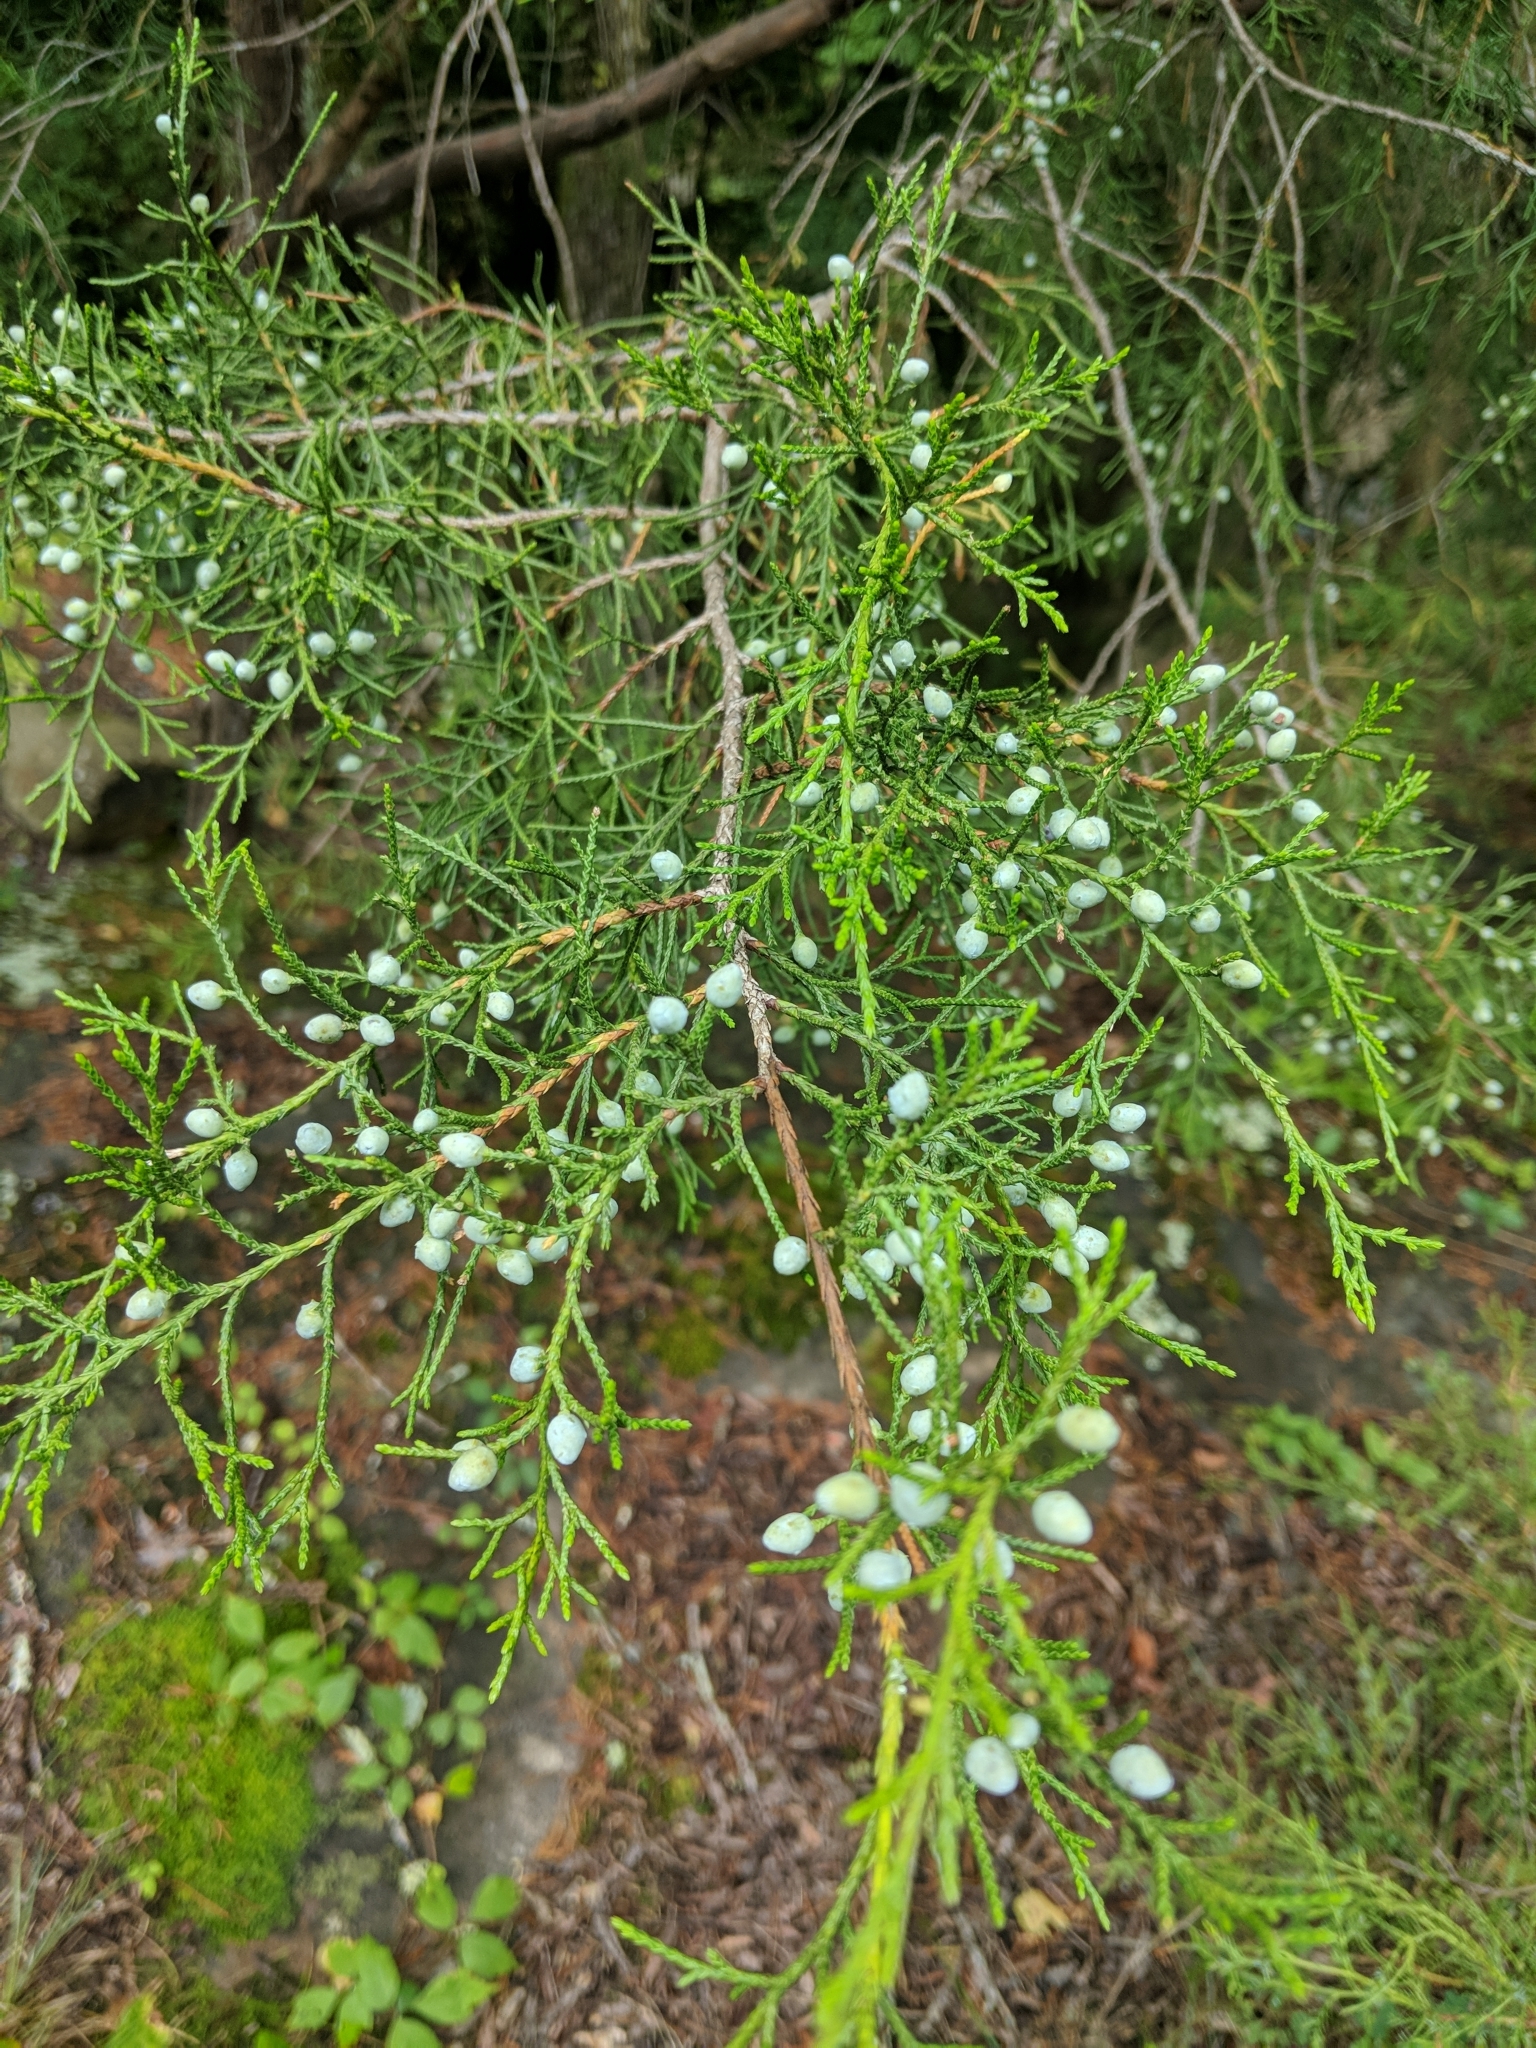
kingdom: Plantae
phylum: Tracheophyta
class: Pinopsida
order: Pinales
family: Cupressaceae
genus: Juniperus
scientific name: Juniperus virginiana
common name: Red juniper
